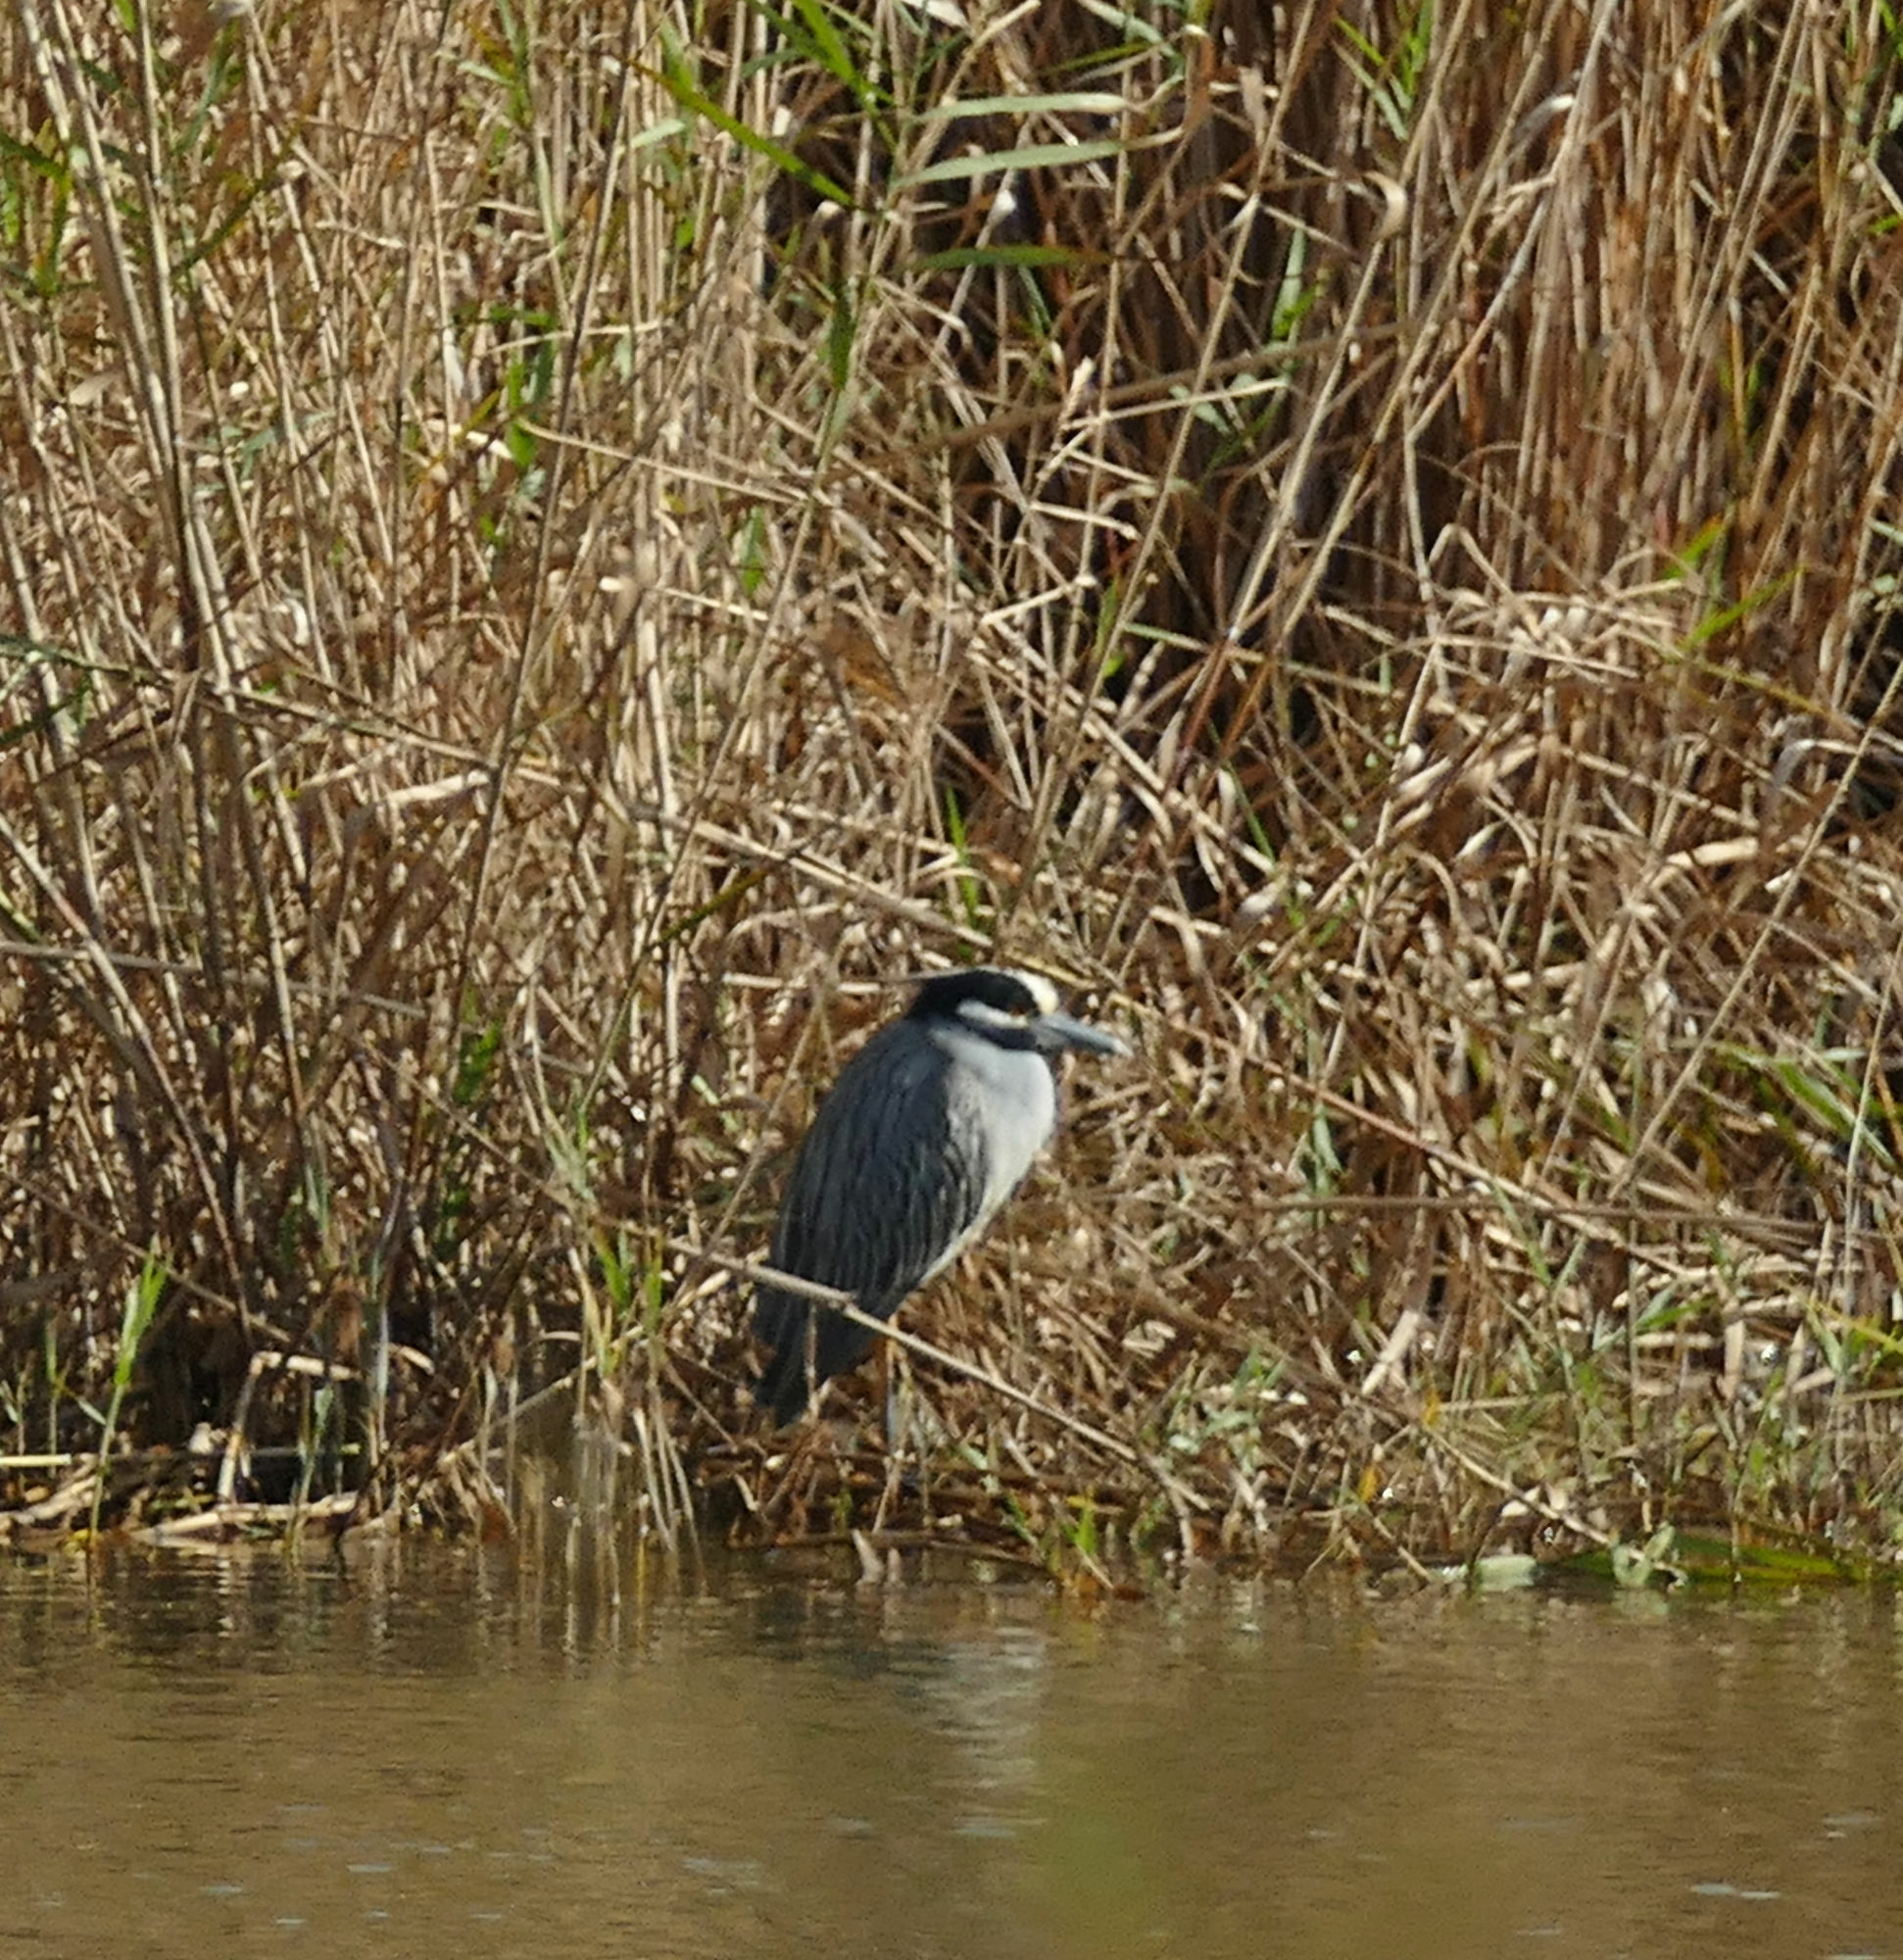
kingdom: Animalia
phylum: Chordata
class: Aves
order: Pelecaniformes
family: Ardeidae
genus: Nyctanassa
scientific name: Nyctanassa violacea
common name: Yellow-crowned night heron
